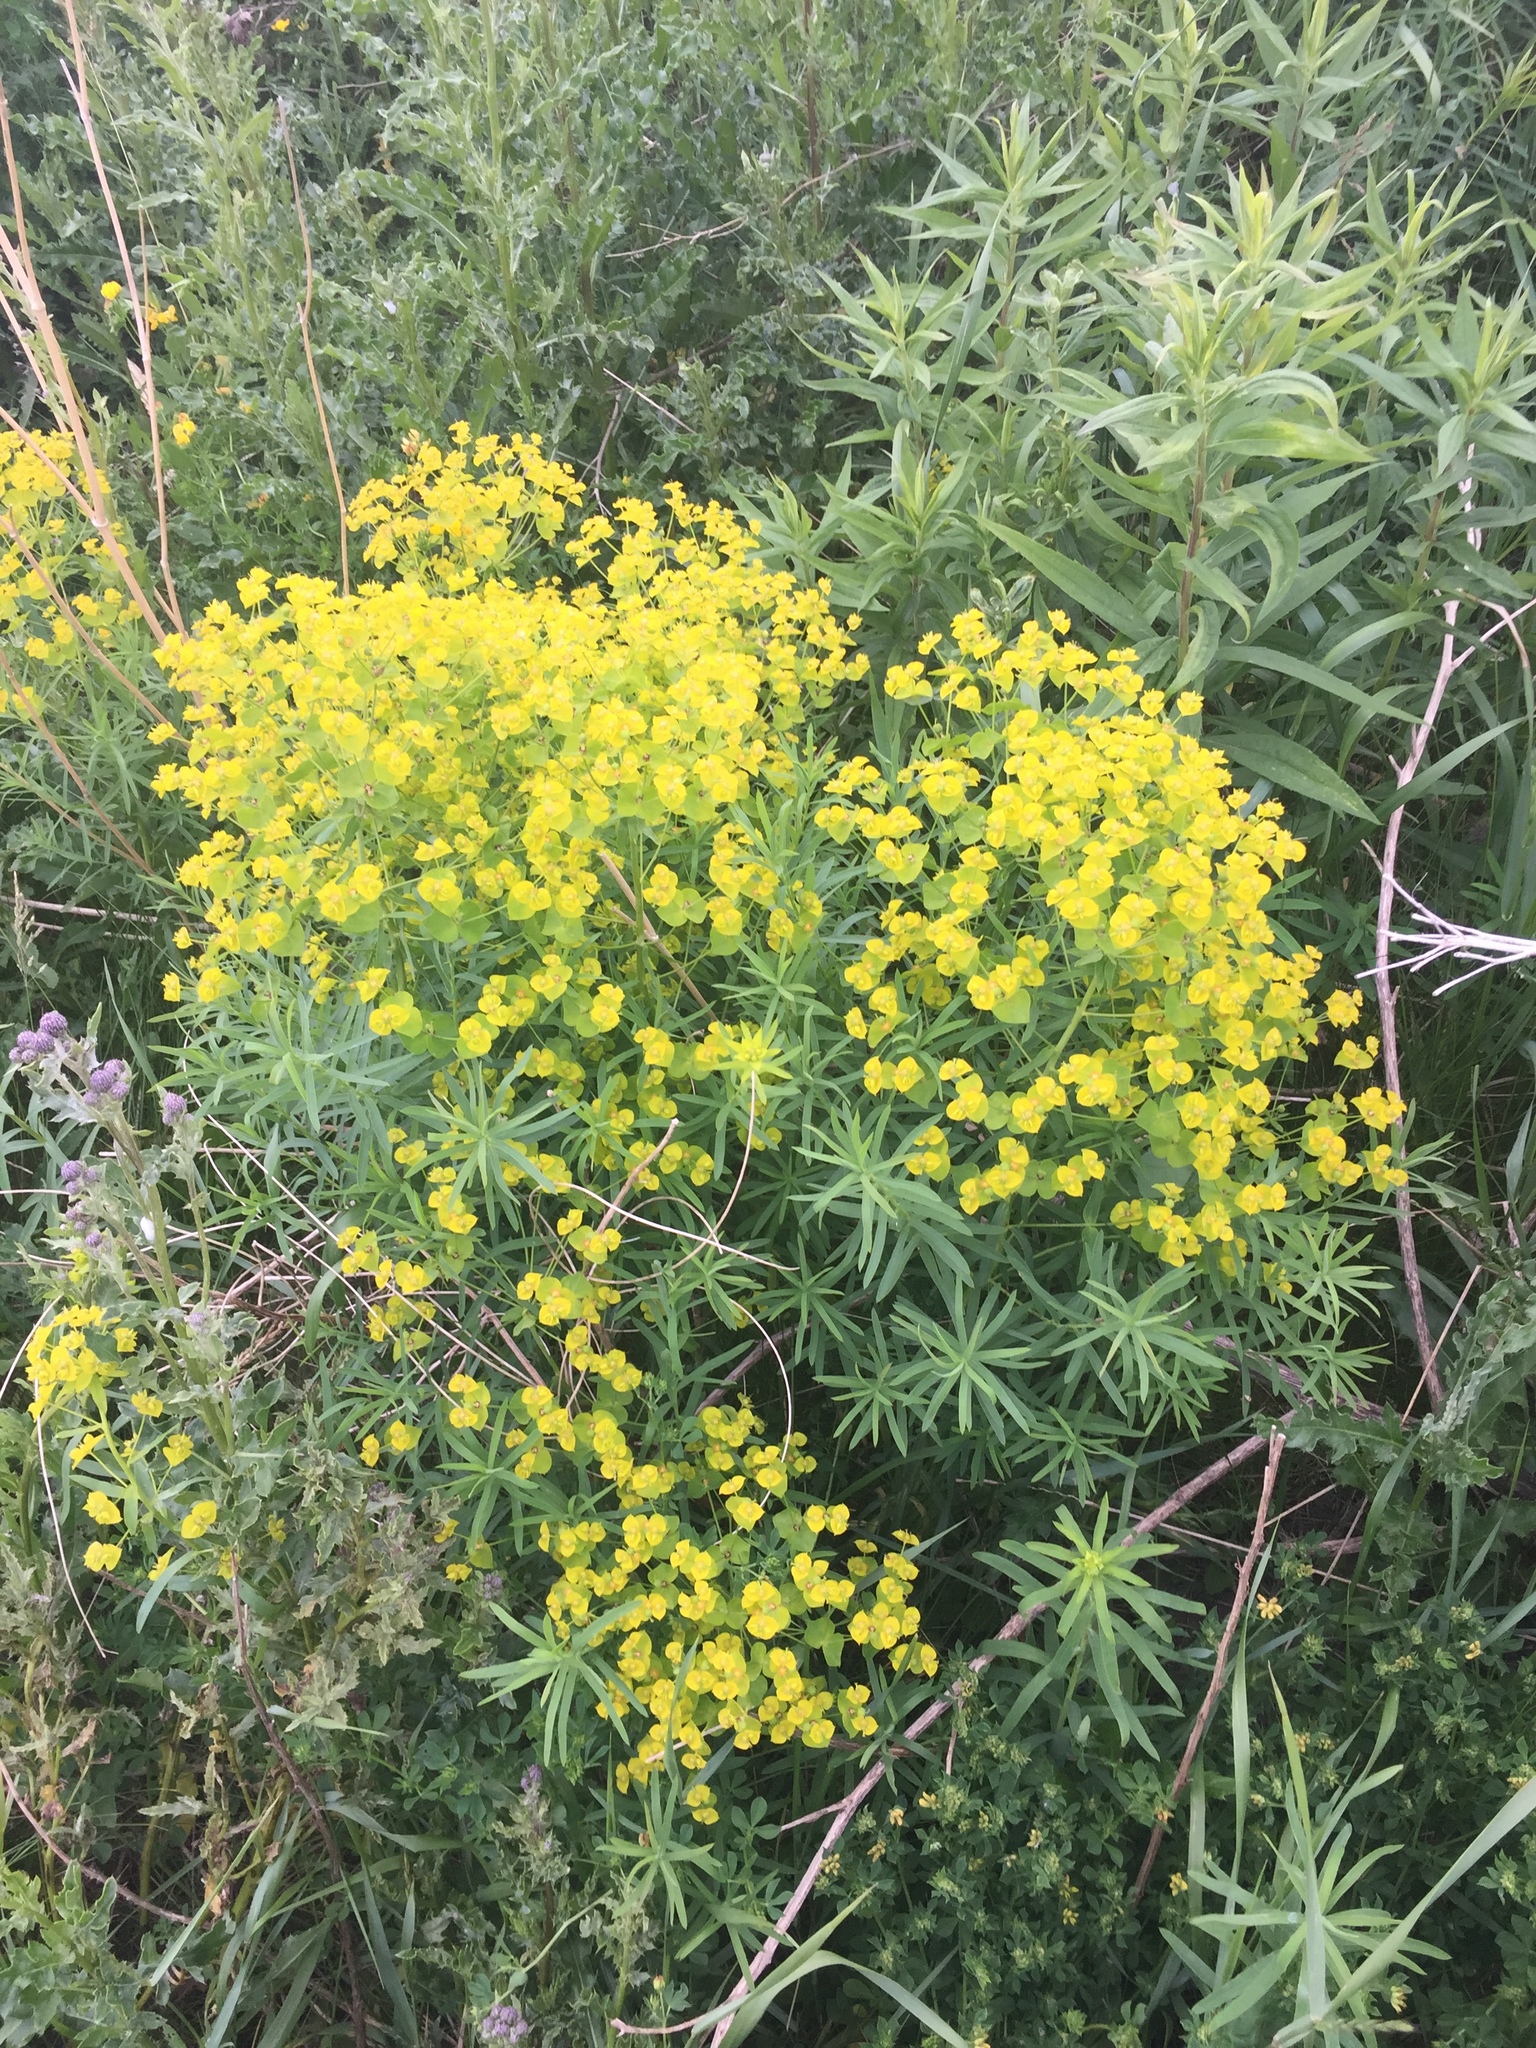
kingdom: Plantae
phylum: Tracheophyta
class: Magnoliopsida
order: Malpighiales
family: Euphorbiaceae
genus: Euphorbia
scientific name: Euphorbia virgata
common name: Leafy spurge
